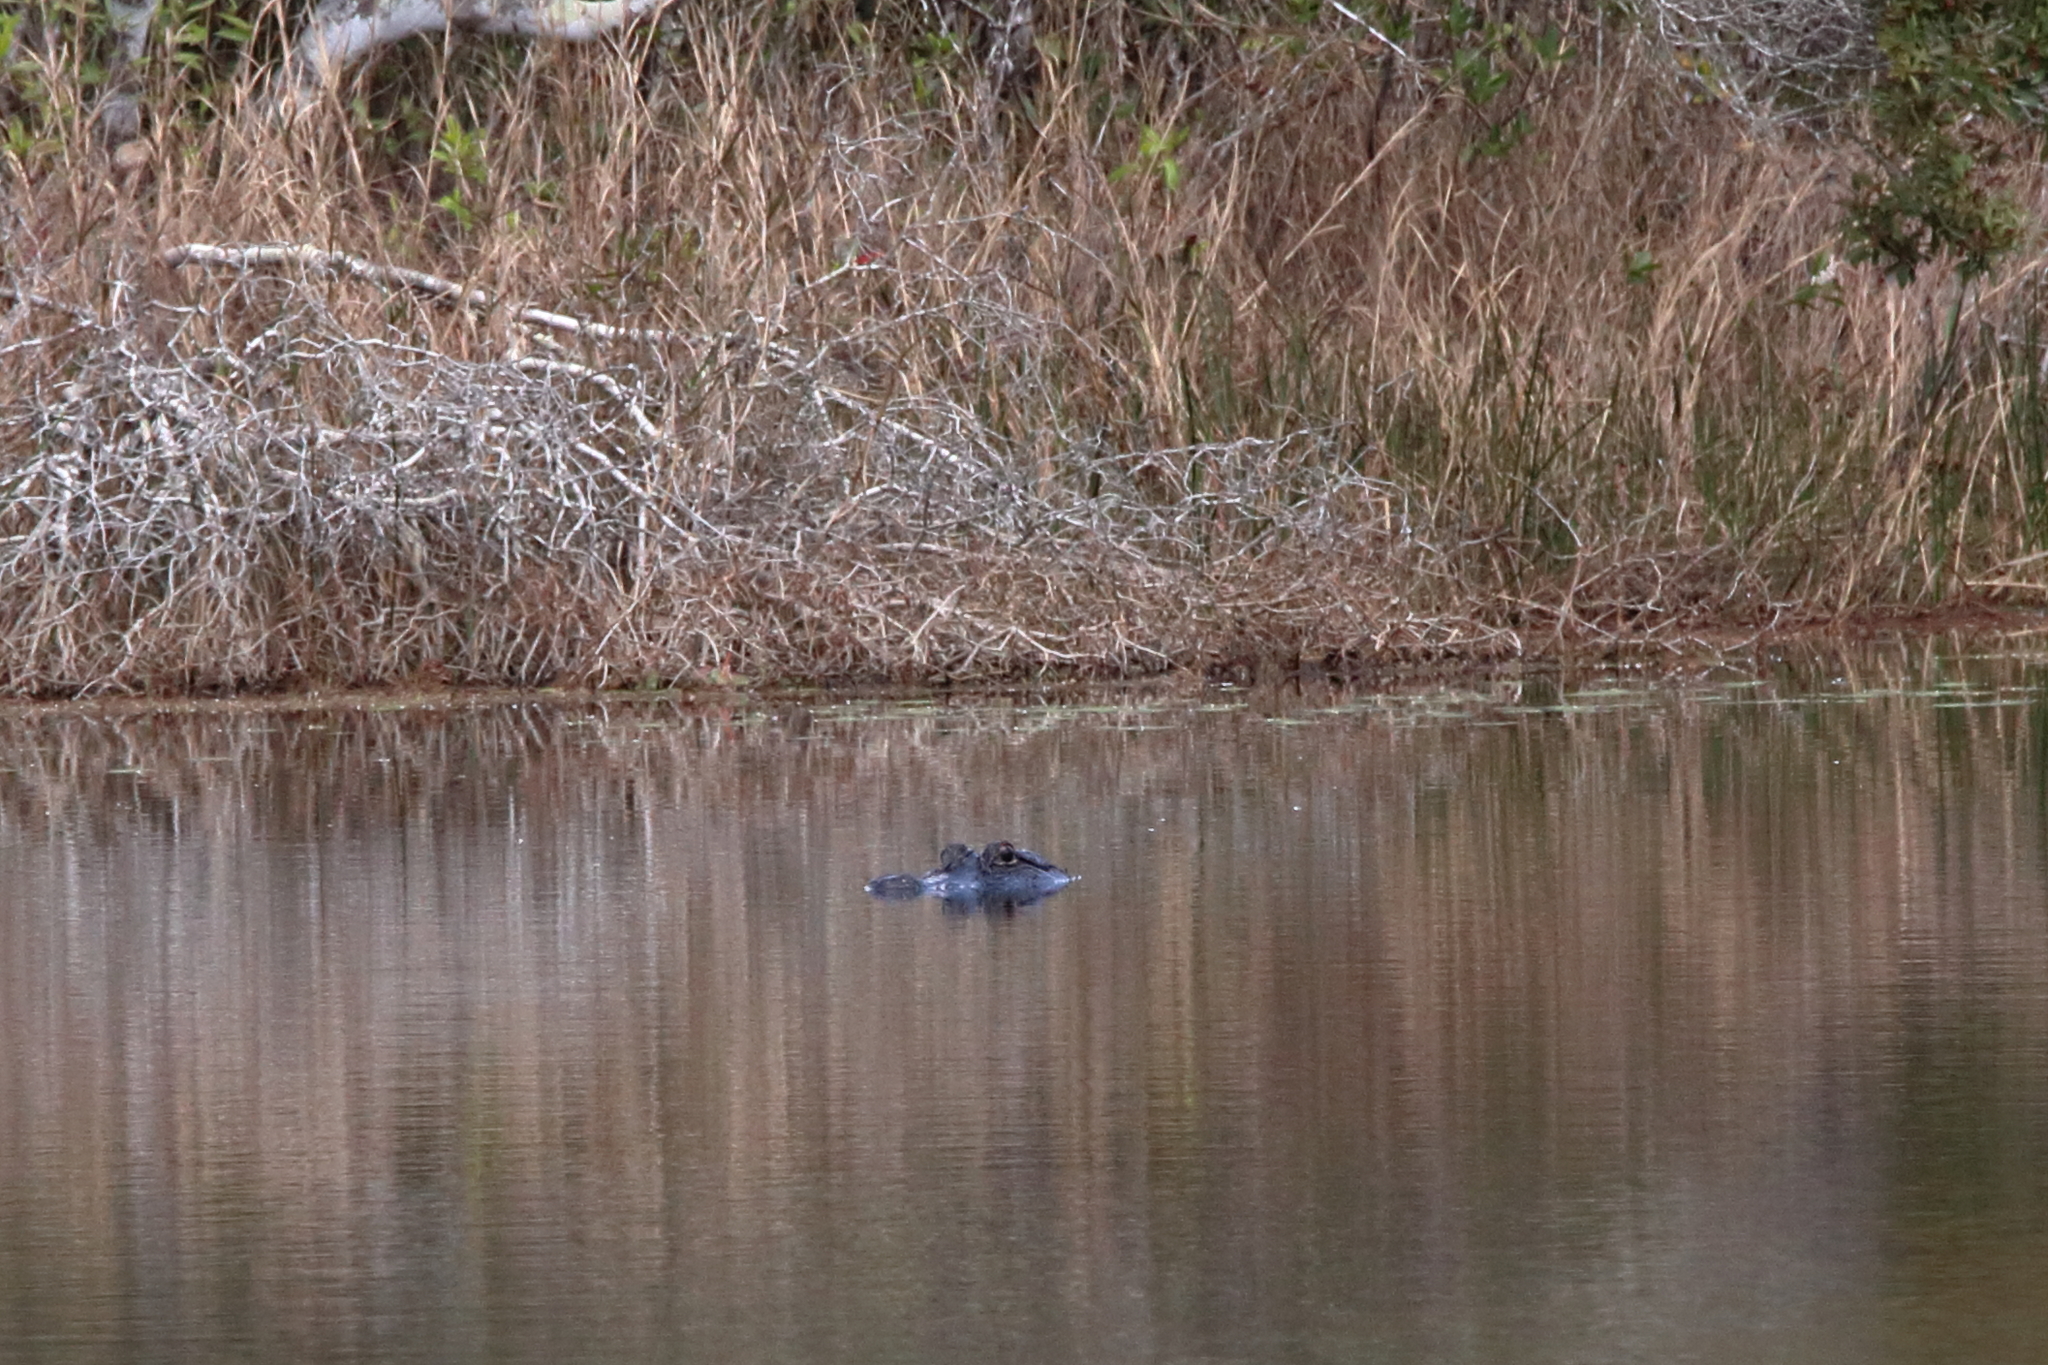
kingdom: Animalia
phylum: Chordata
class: Crocodylia
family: Alligatoridae
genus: Alligator
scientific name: Alligator mississippiensis
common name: American alligator
